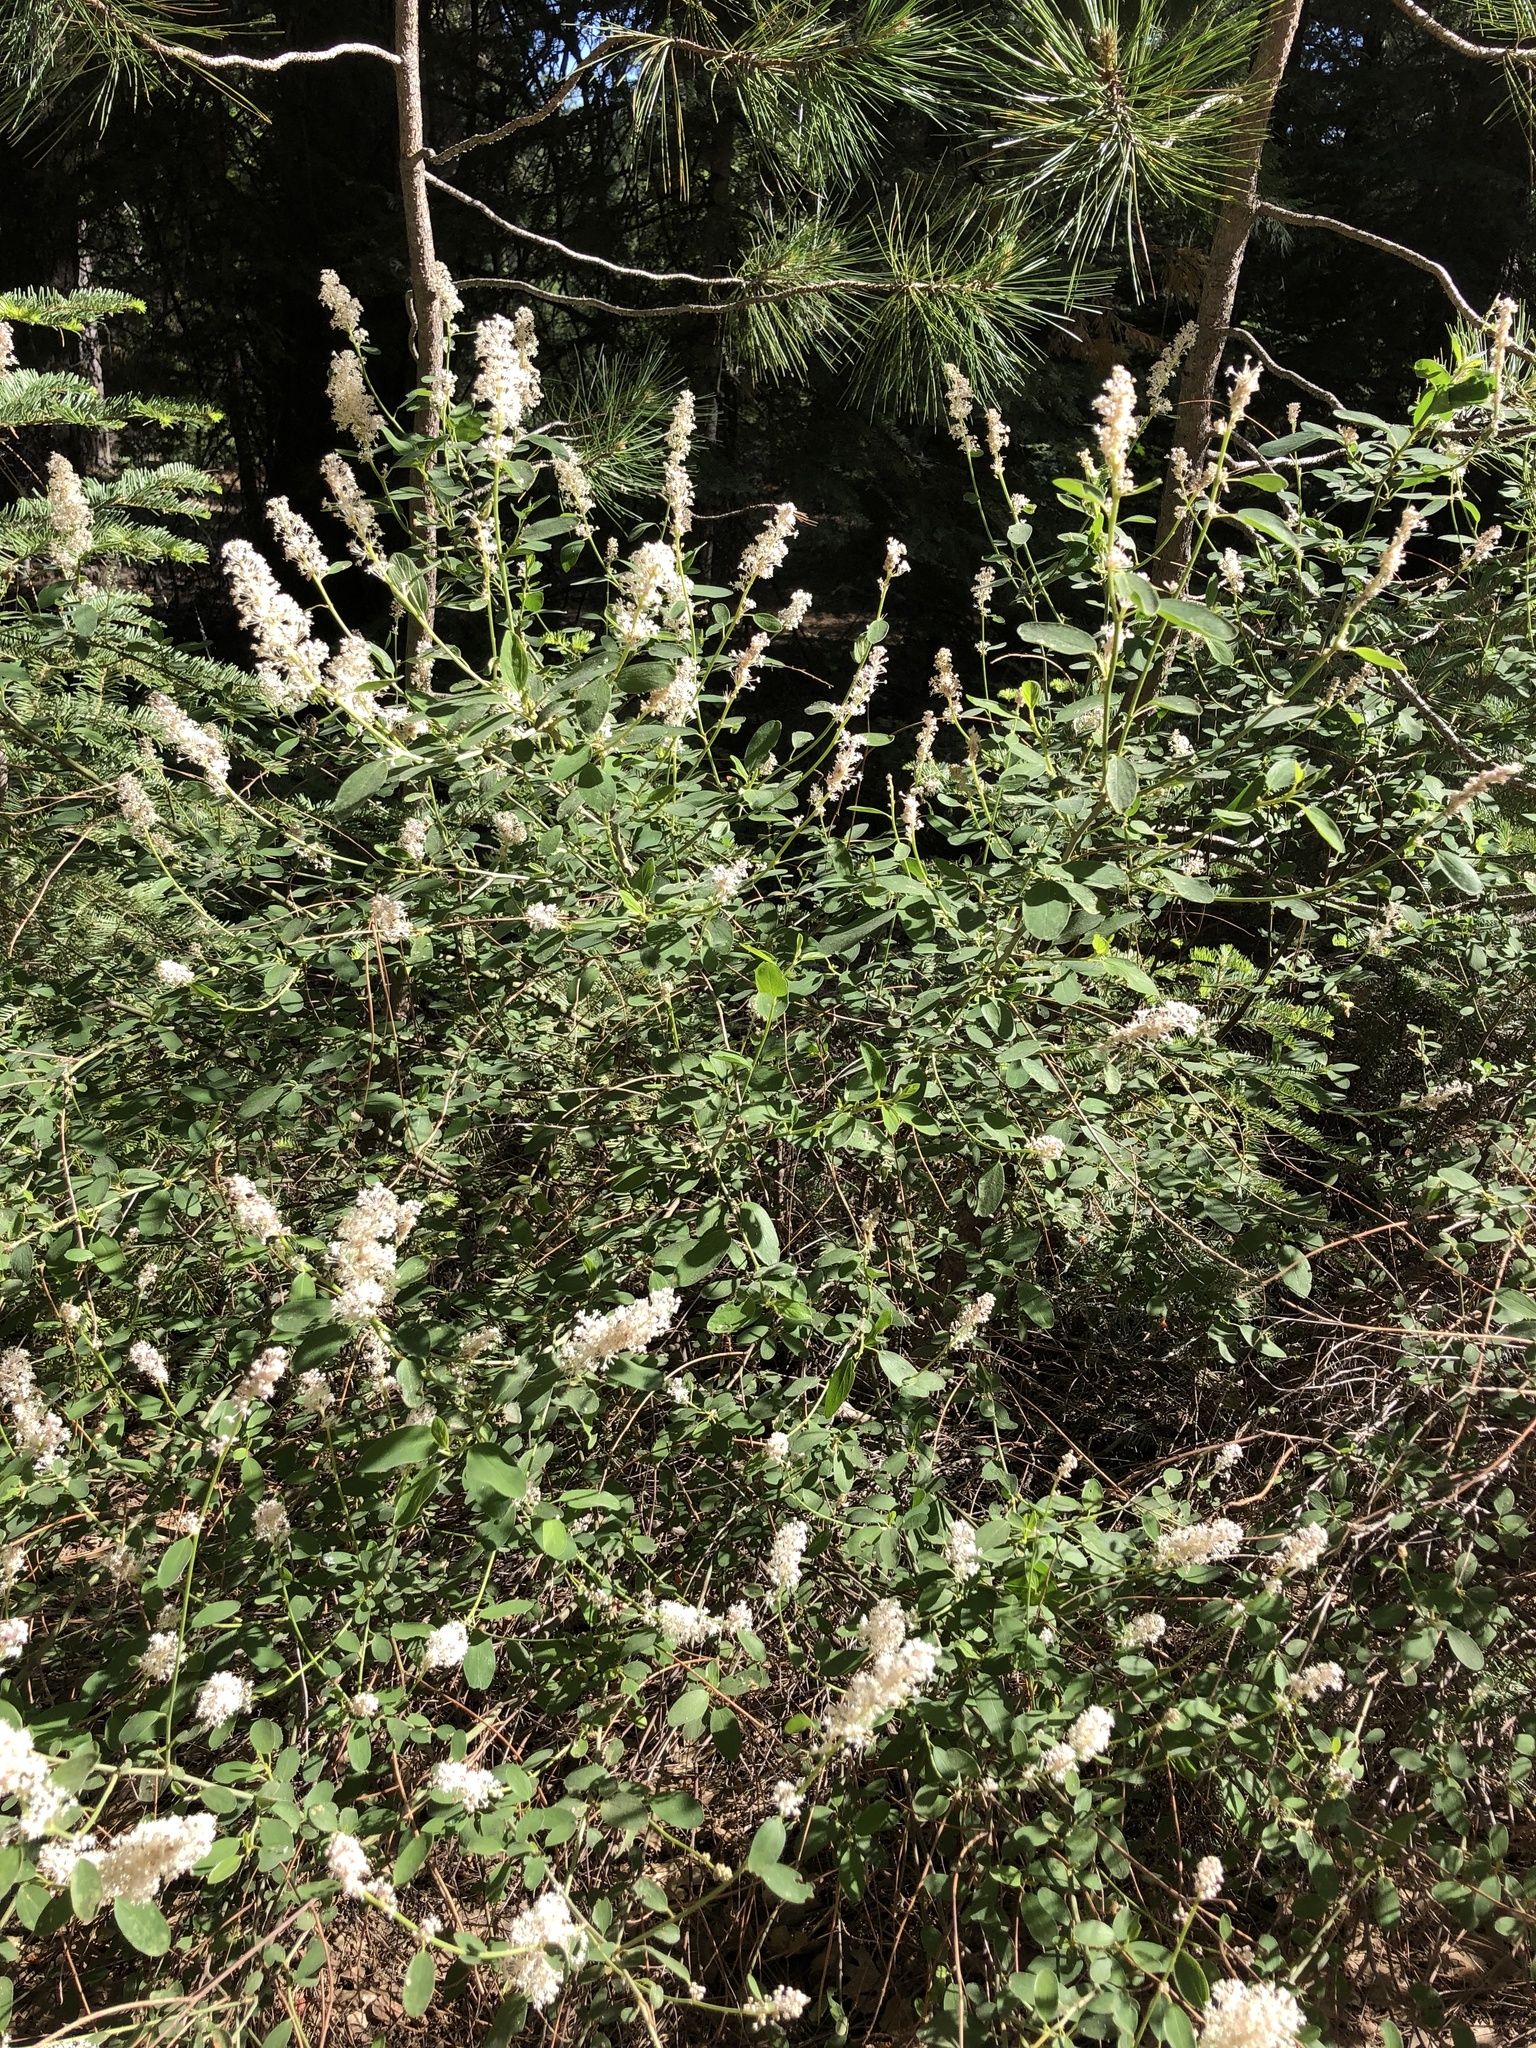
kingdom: Plantae
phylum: Tracheophyta
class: Magnoliopsida
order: Rosales
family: Rhamnaceae
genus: Ceanothus
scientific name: Ceanothus integerrimus
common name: Deerbrush ceanothus
